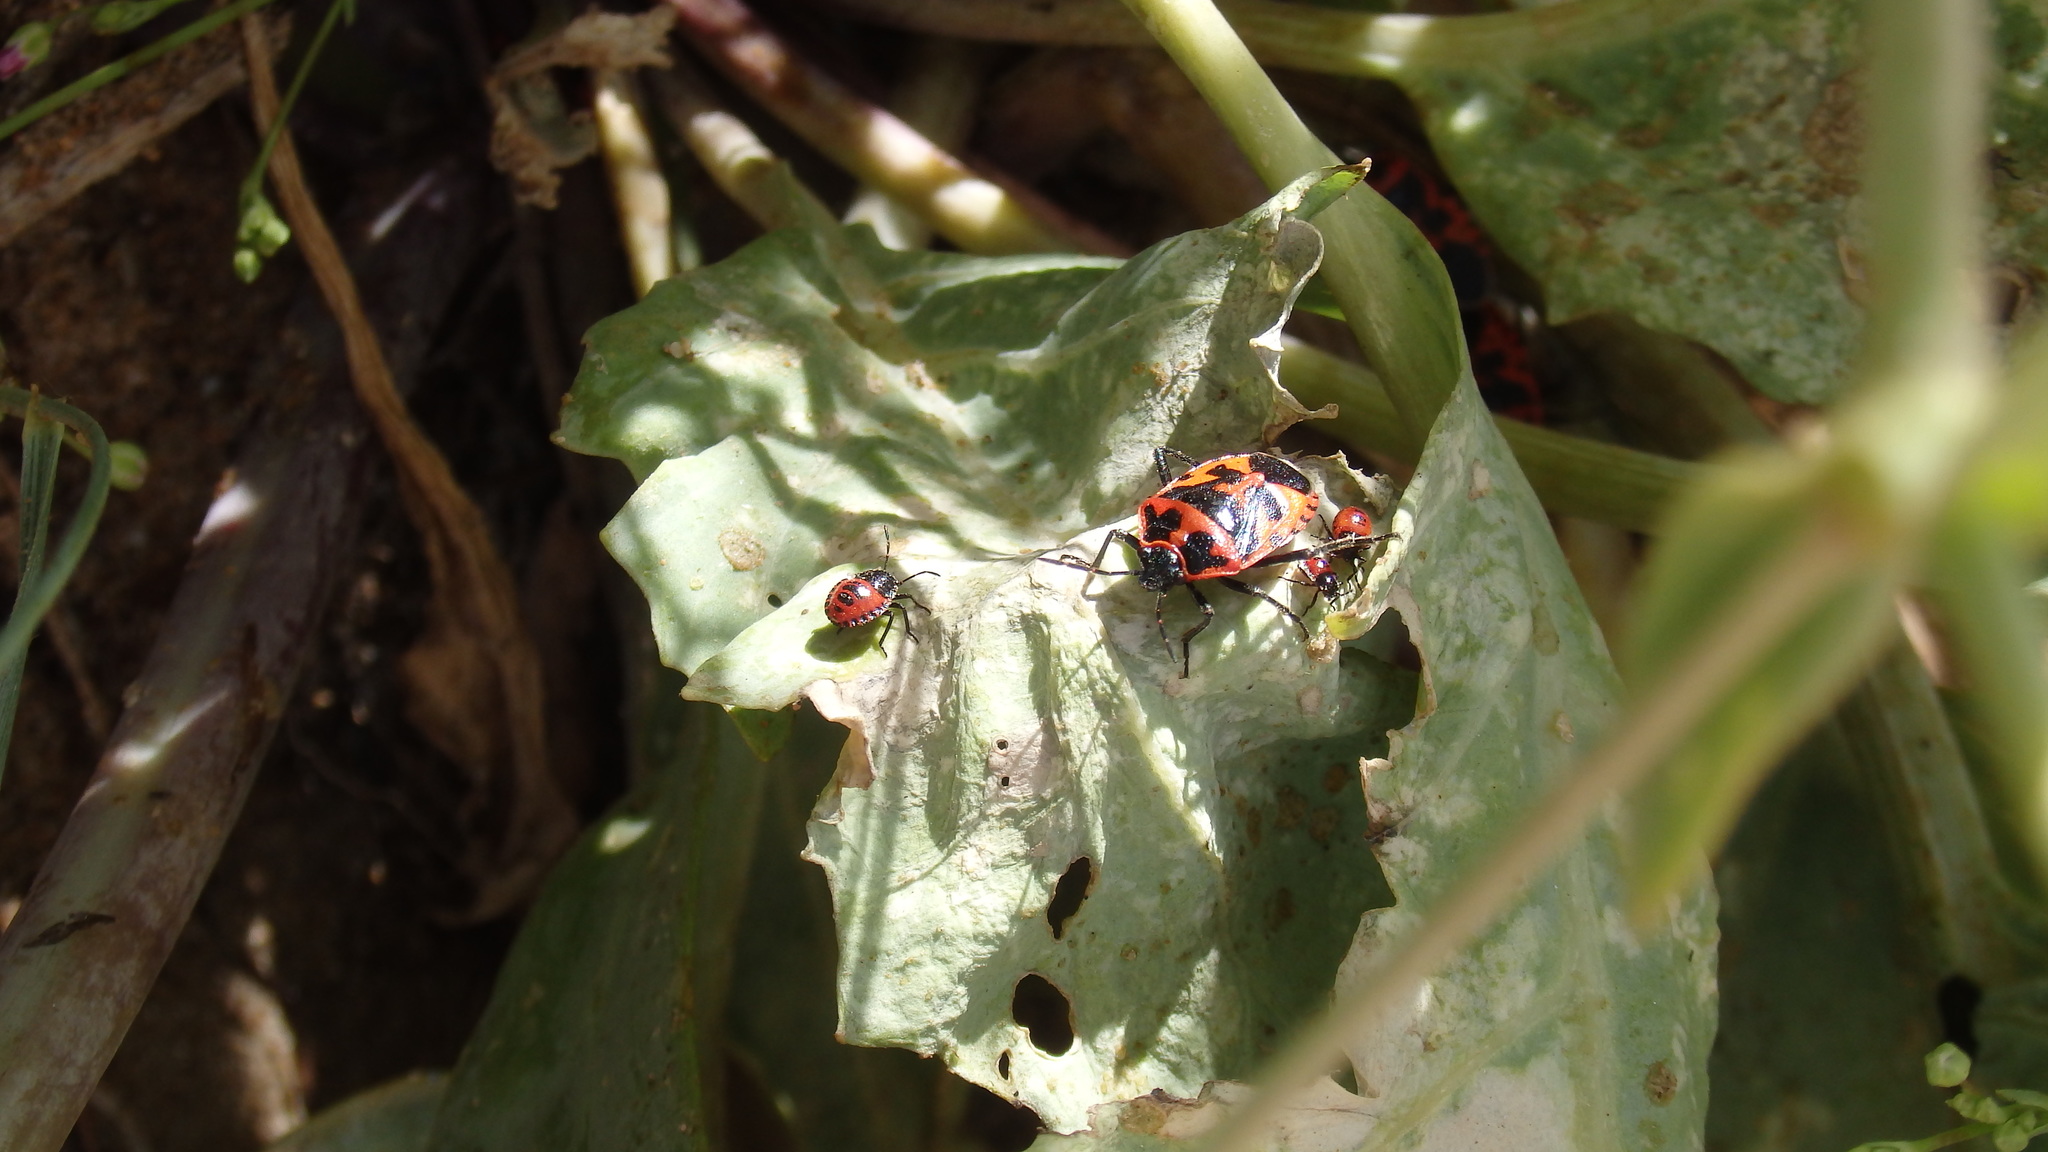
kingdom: Animalia
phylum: Arthropoda
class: Insecta
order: Hemiptera
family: Pentatomidae
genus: Eurydema
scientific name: Eurydema ventralis
